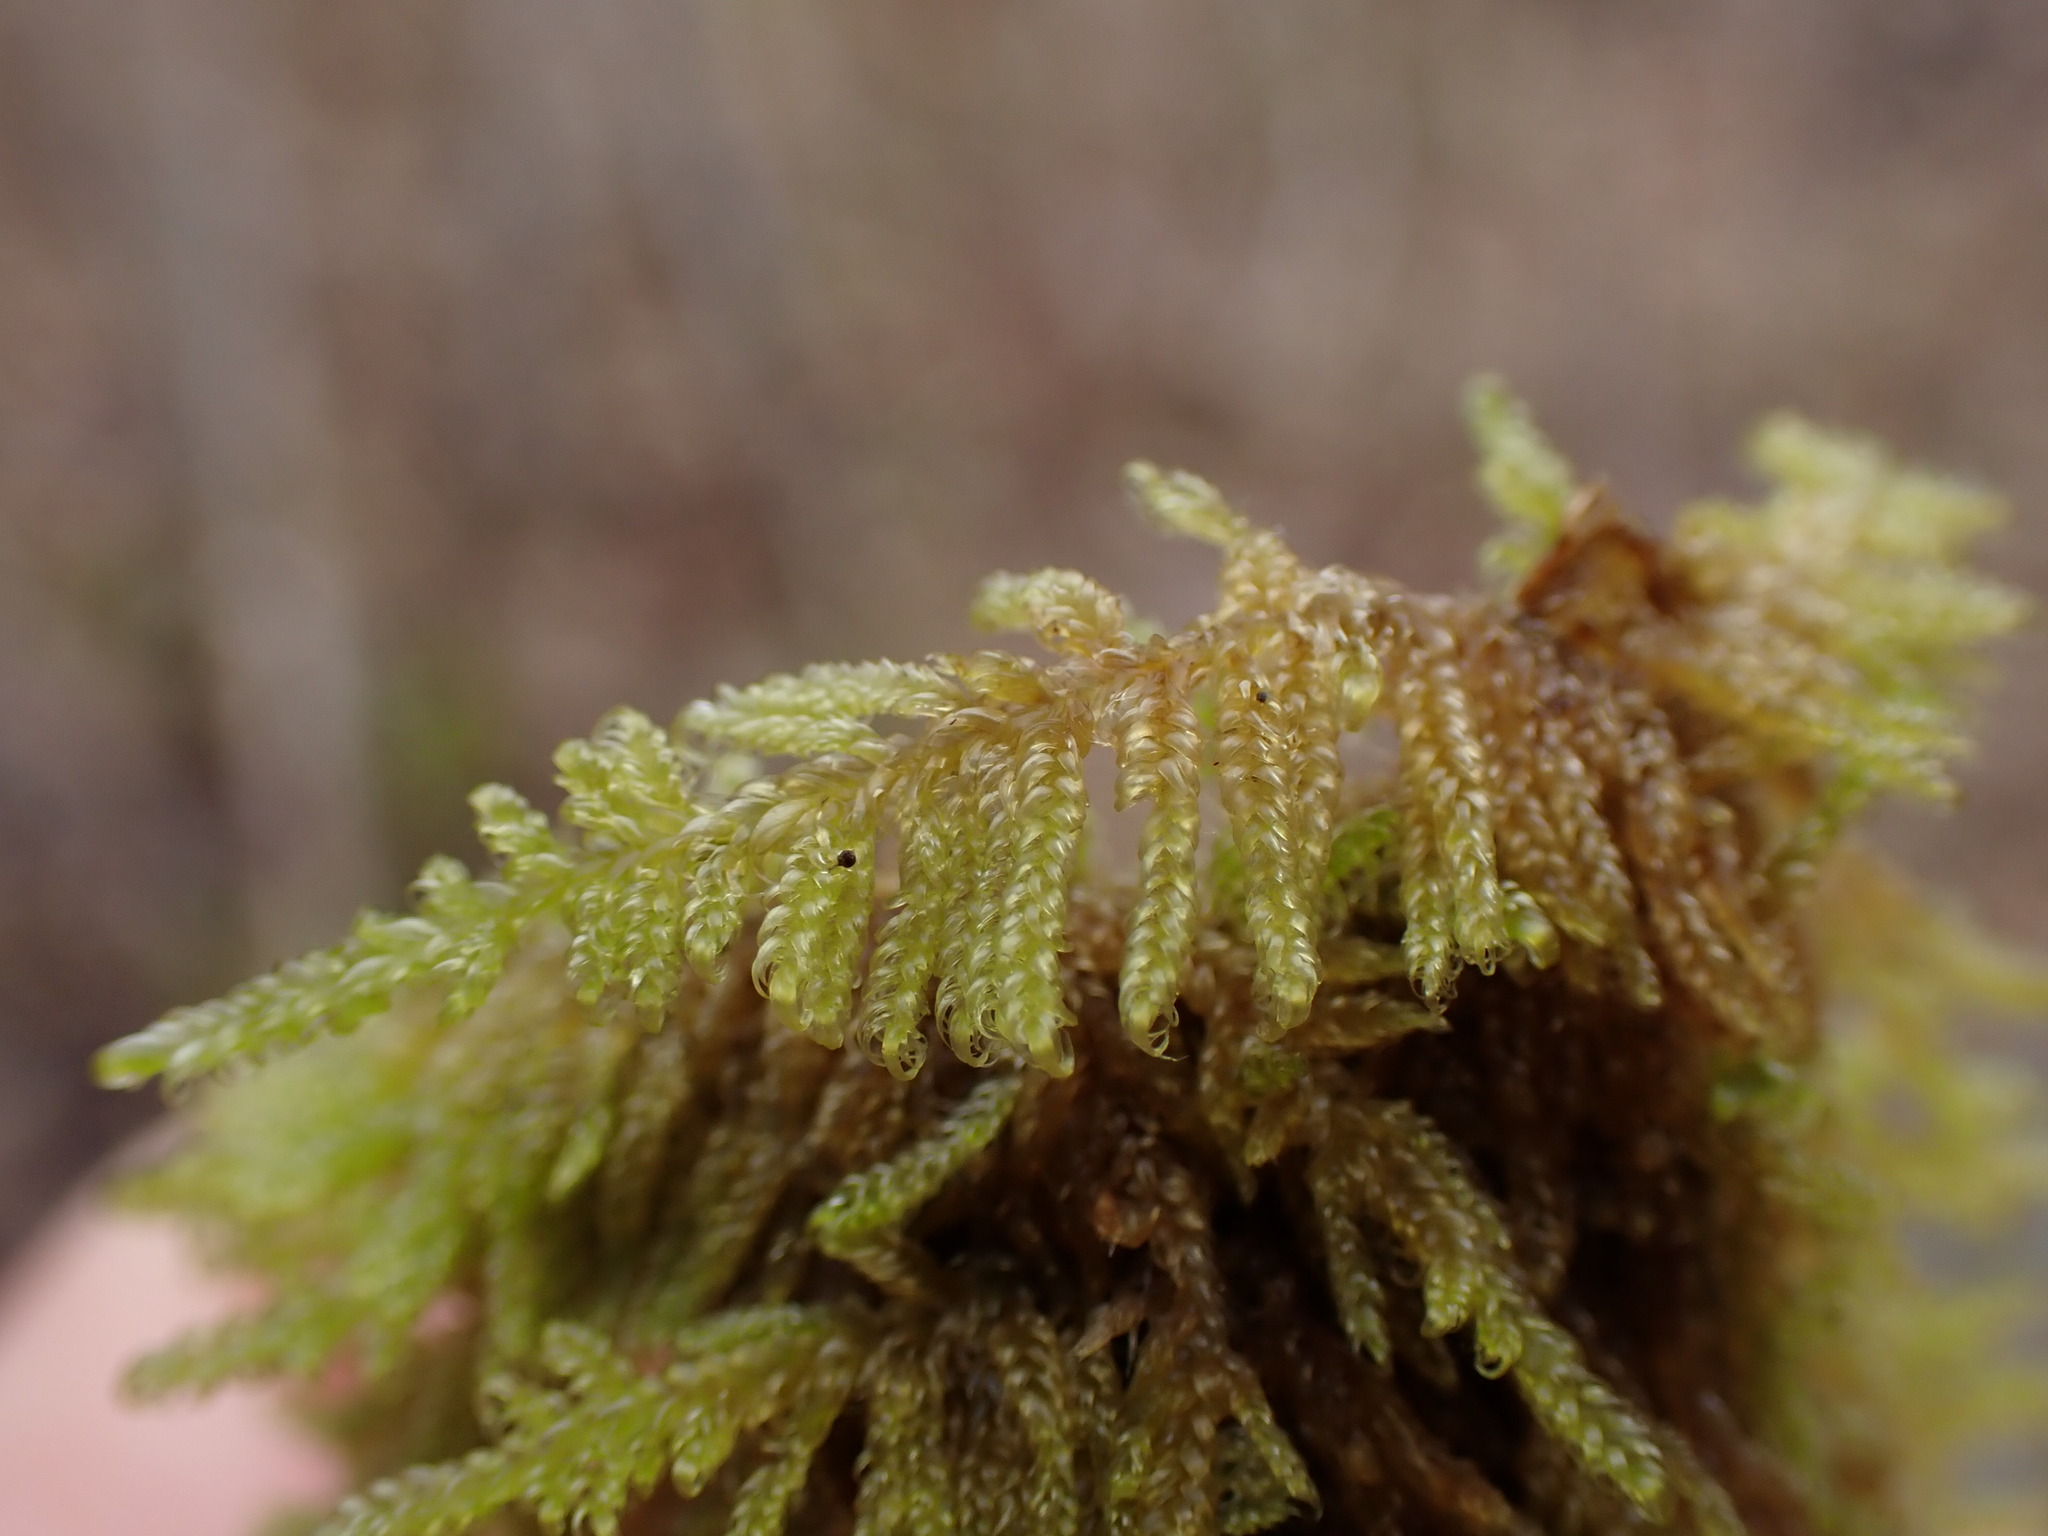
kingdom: Plantae
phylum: Bryophyta
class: Bryopsida
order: Hypnales
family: Stereodontaceae
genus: Stereodon
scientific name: Stereodon subimponens
